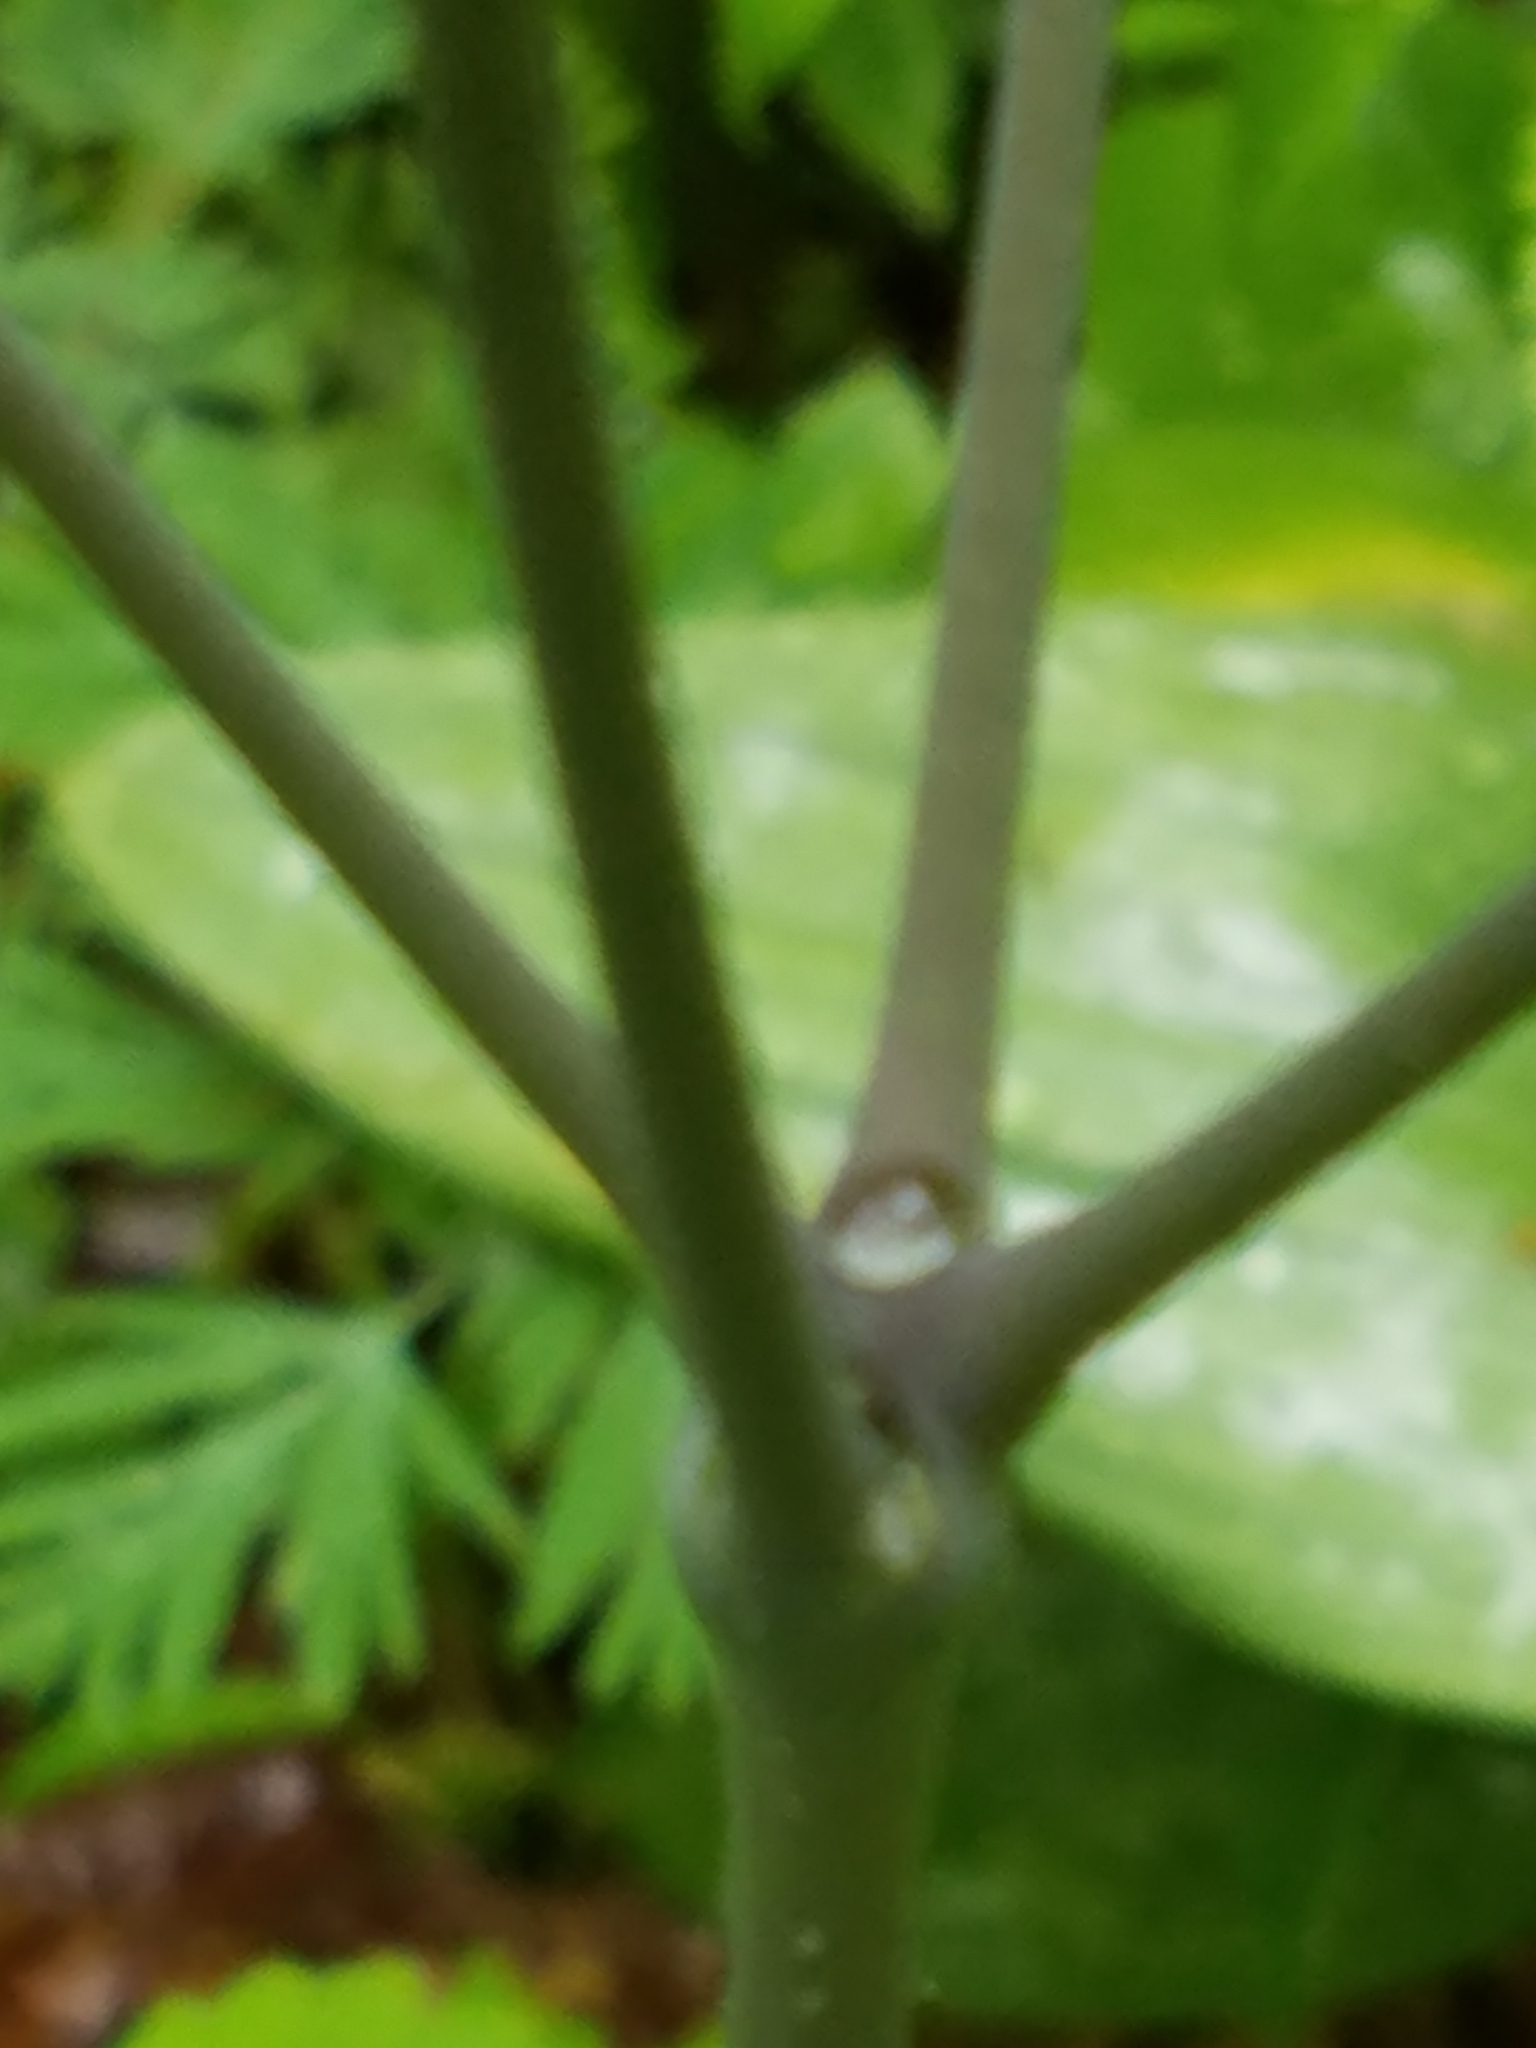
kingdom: Plantae
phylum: Tracheophyta
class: Magnoliopsida
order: Ranunculales
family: Berberidaceae
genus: Caulophyllum
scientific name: Caulophyllum thalictroides
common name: Blue cohosh
